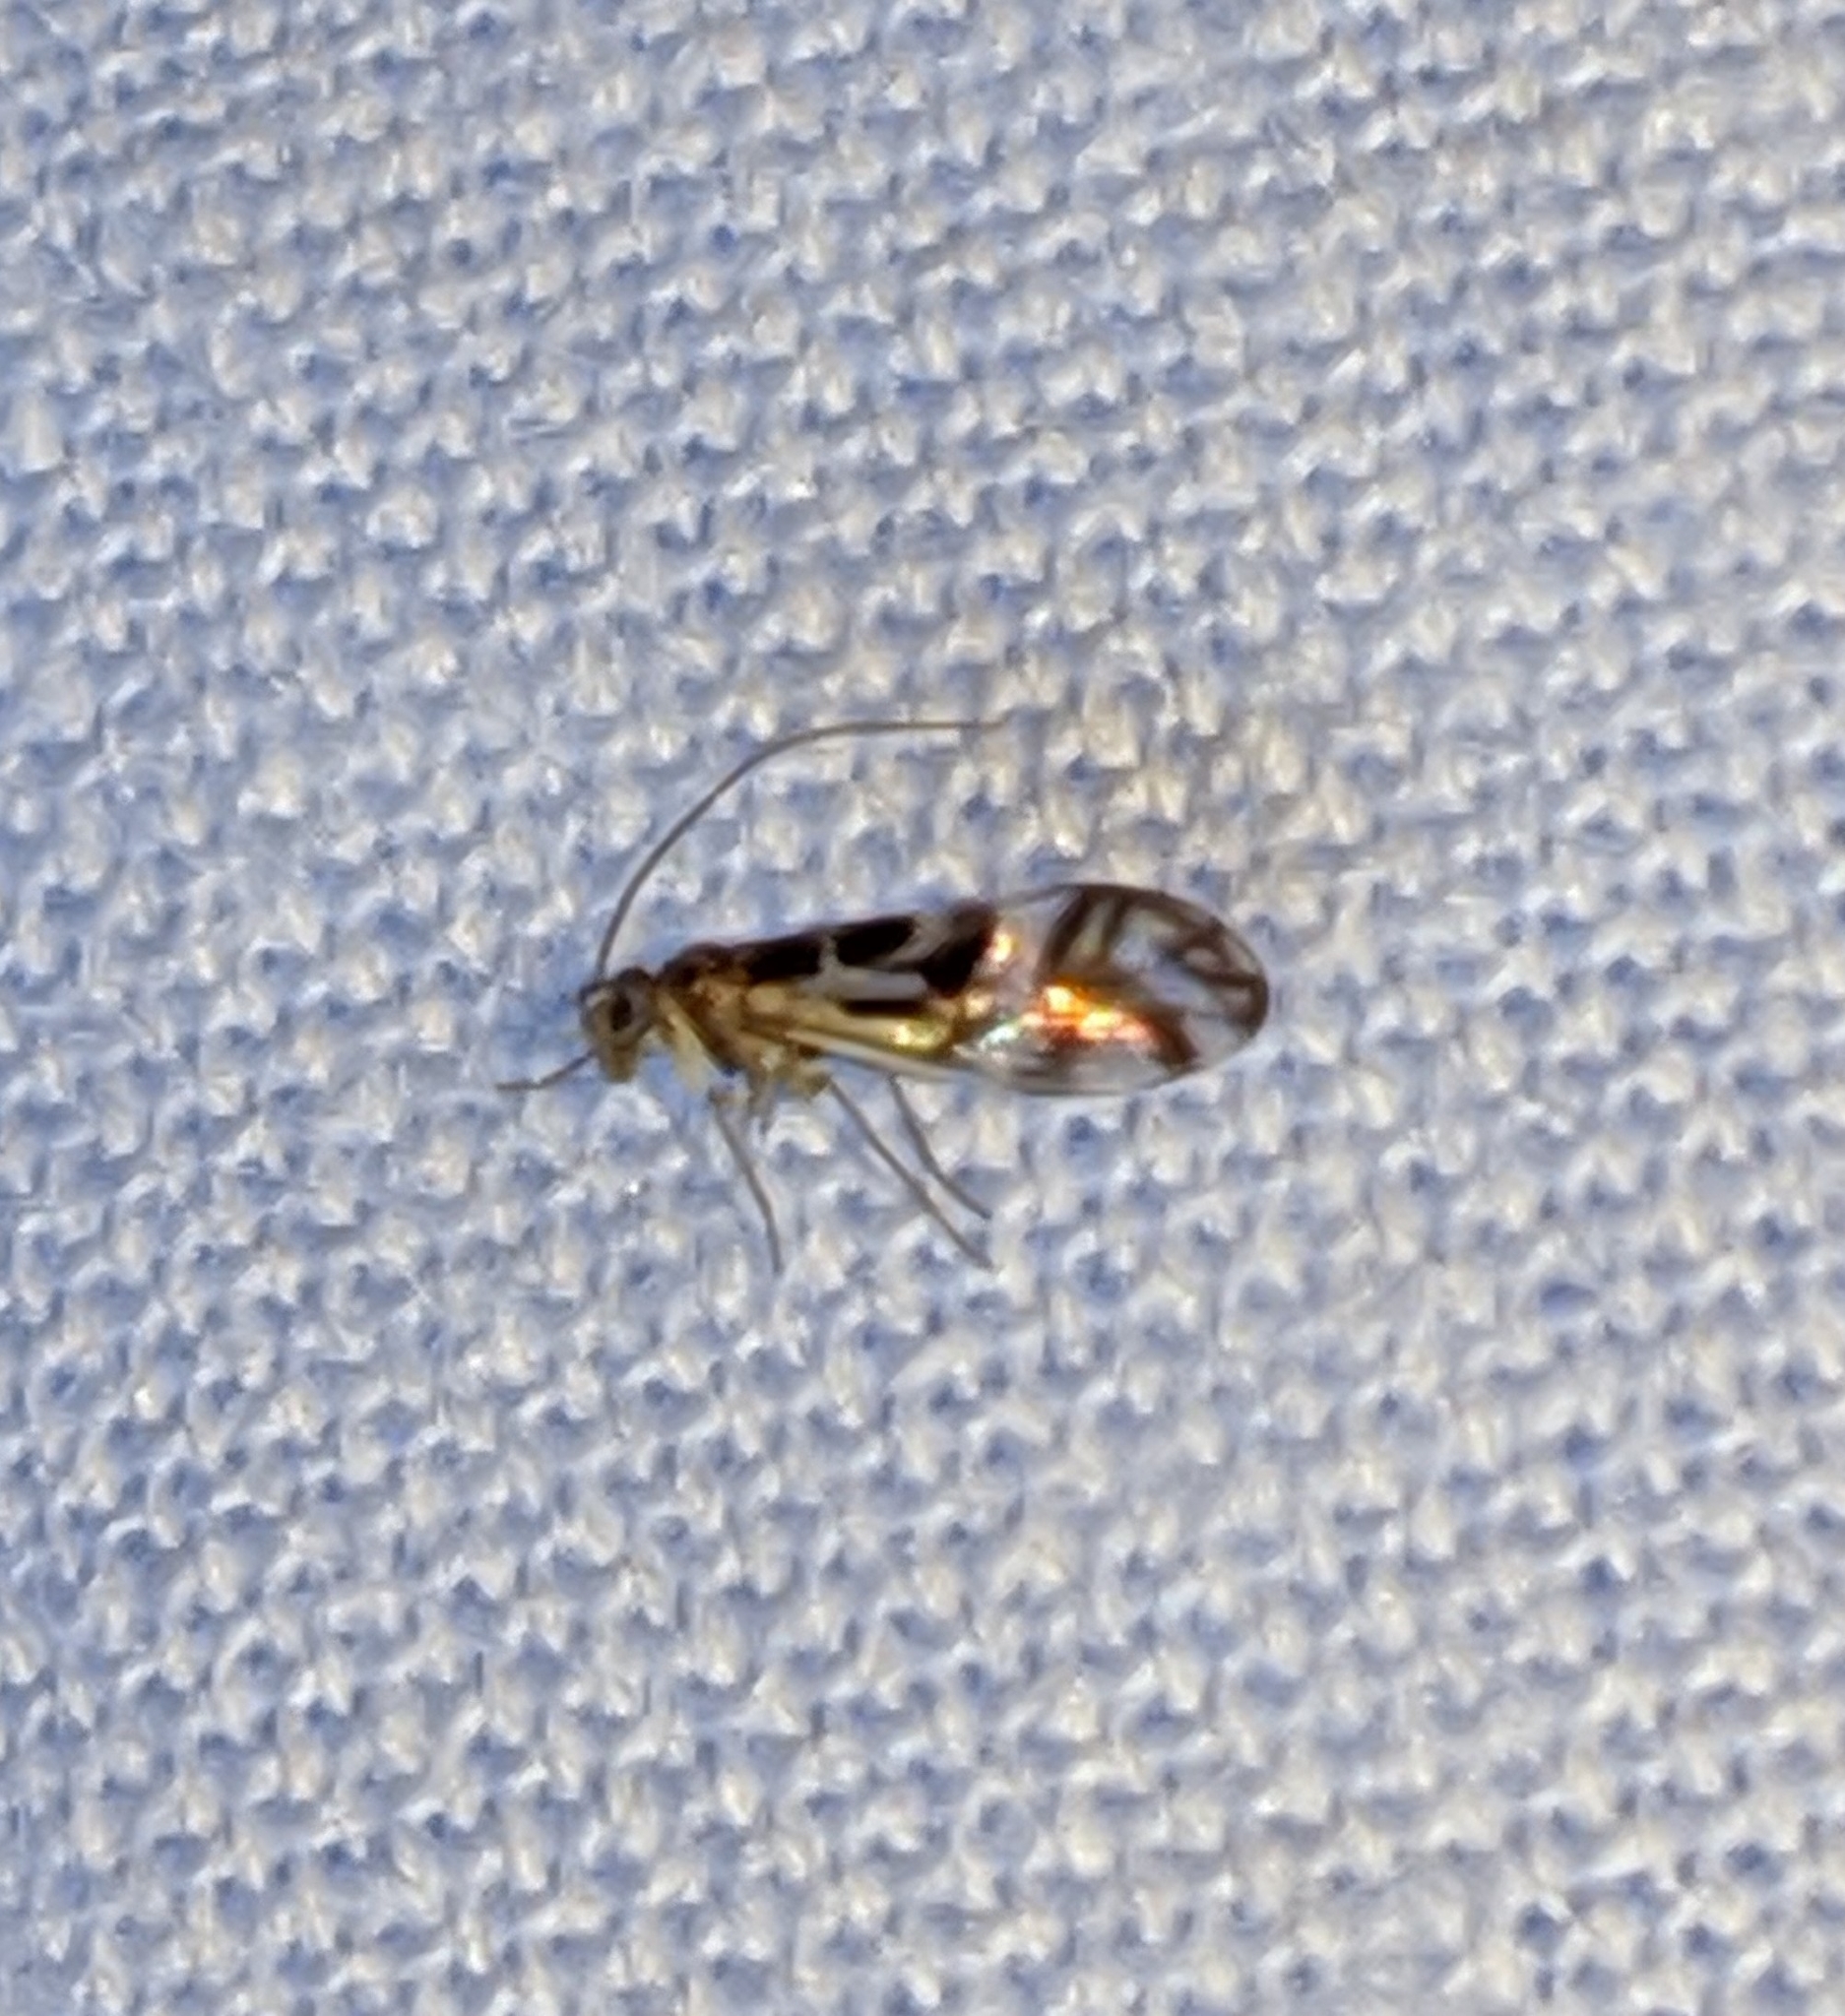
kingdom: Animalia
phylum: Arthropoda
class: Insecta
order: Psocodea
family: Stenopsocidae
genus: Graphopsocus
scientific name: Graphopsocus cruciatus
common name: Lizard bark louse
